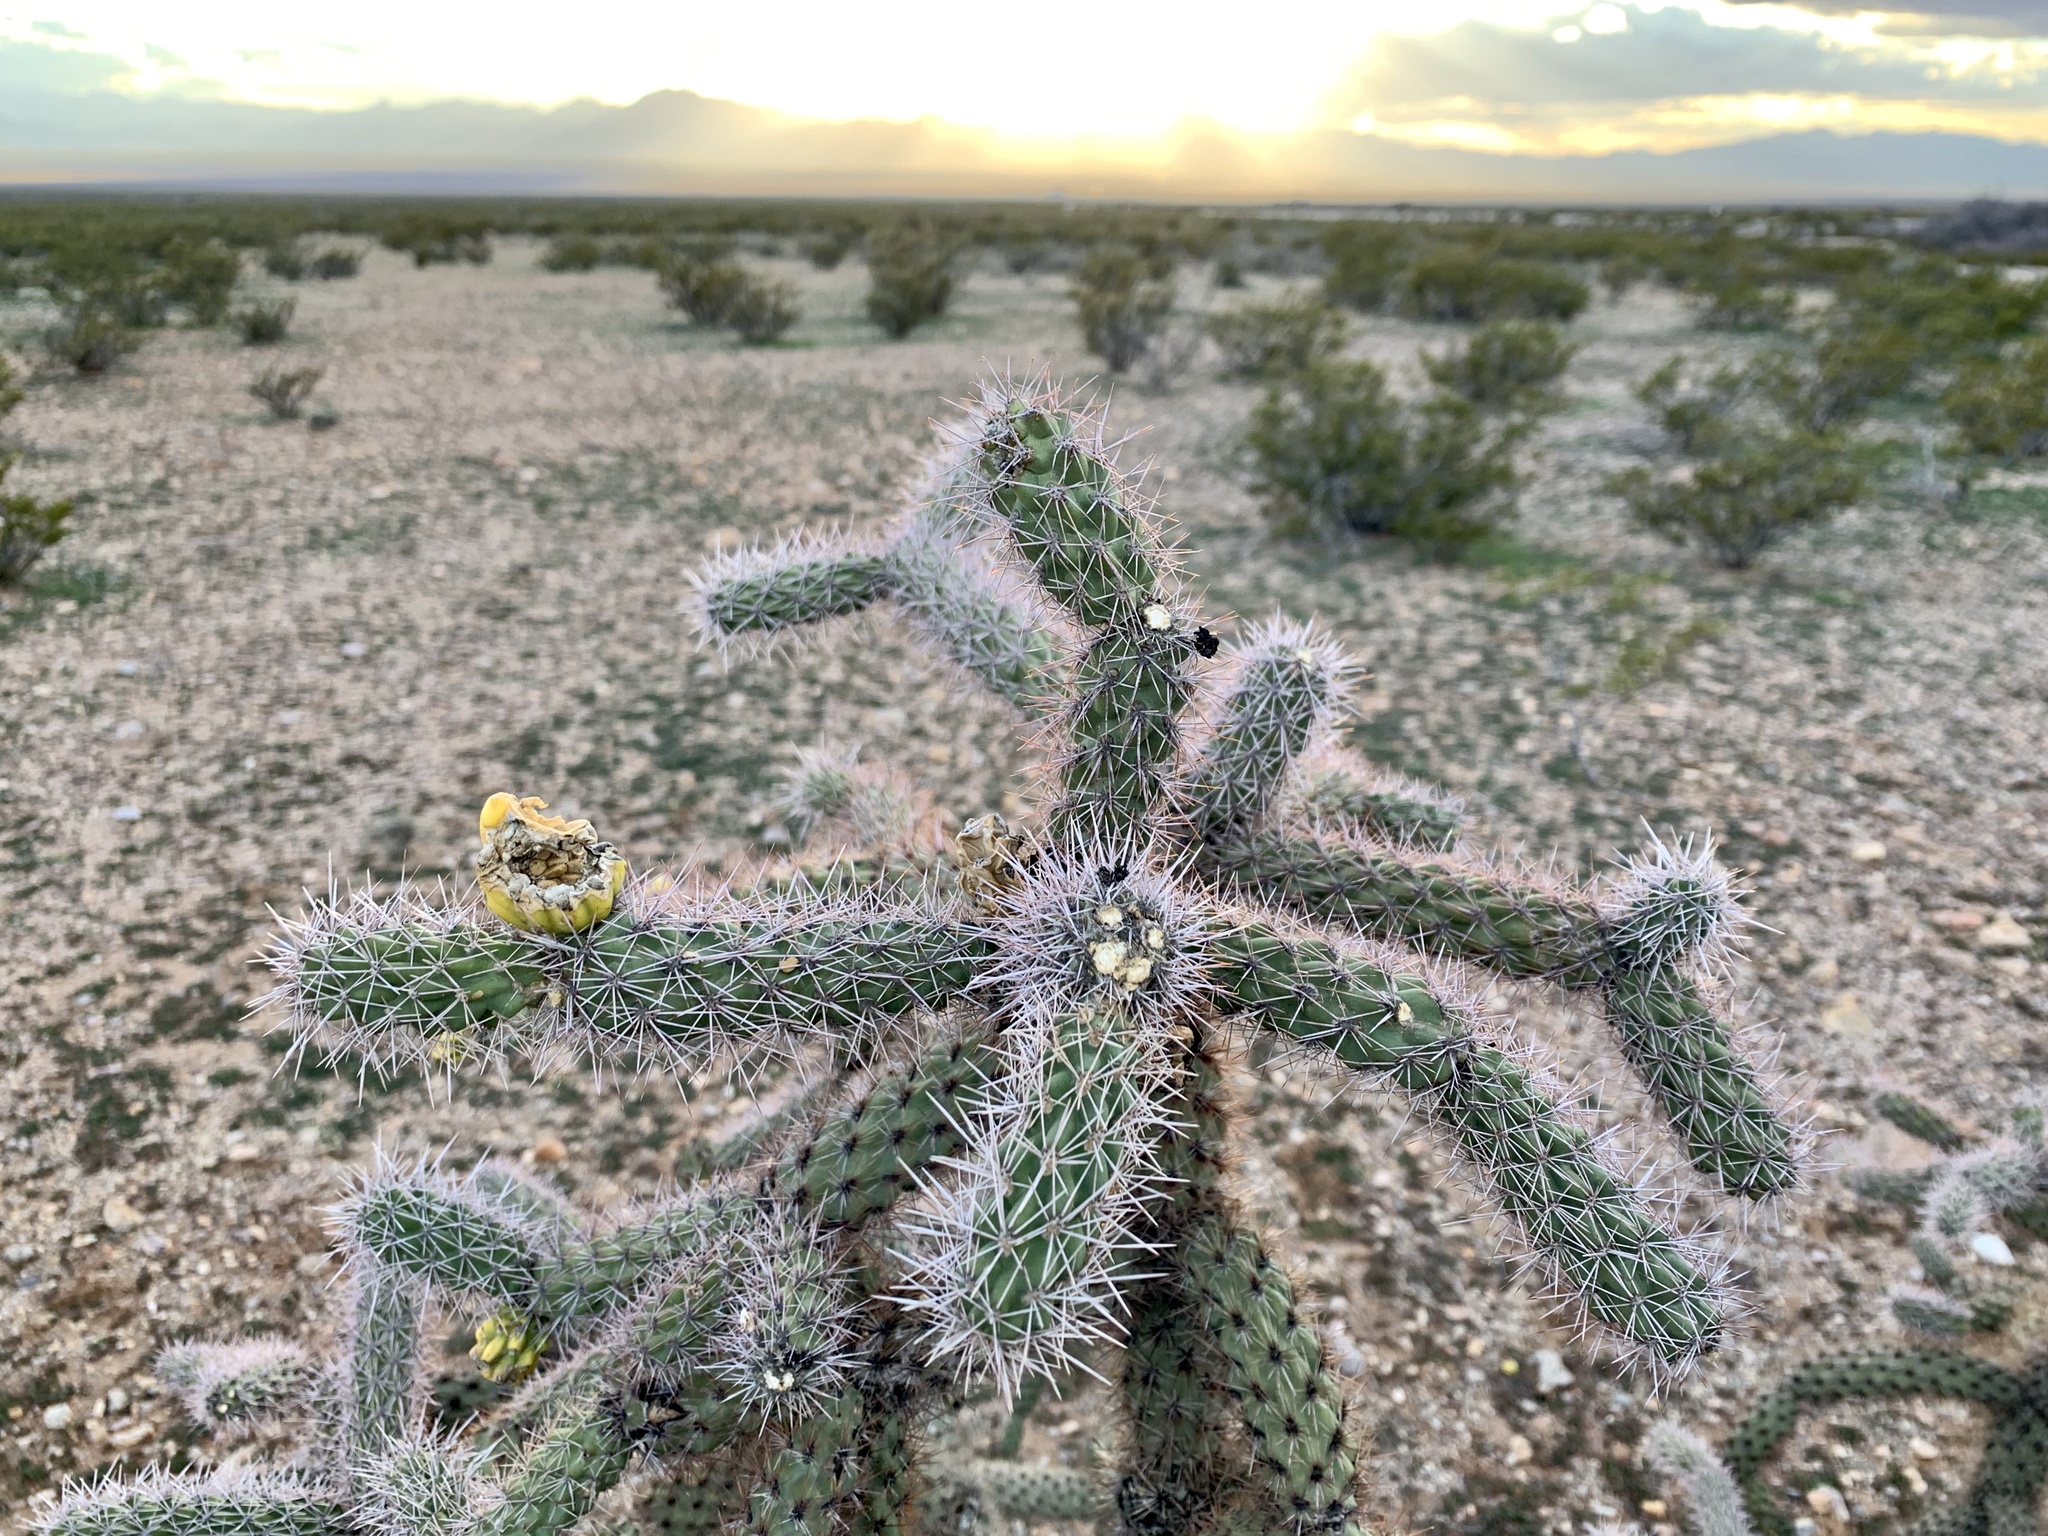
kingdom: Plantae
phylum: Tracheophyta
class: Magnoliopsida
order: Caryophyllales
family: Cactaceae
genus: Cylindropuntia
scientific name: Cylindropuntia imbricata
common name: Candelabrum cactus
